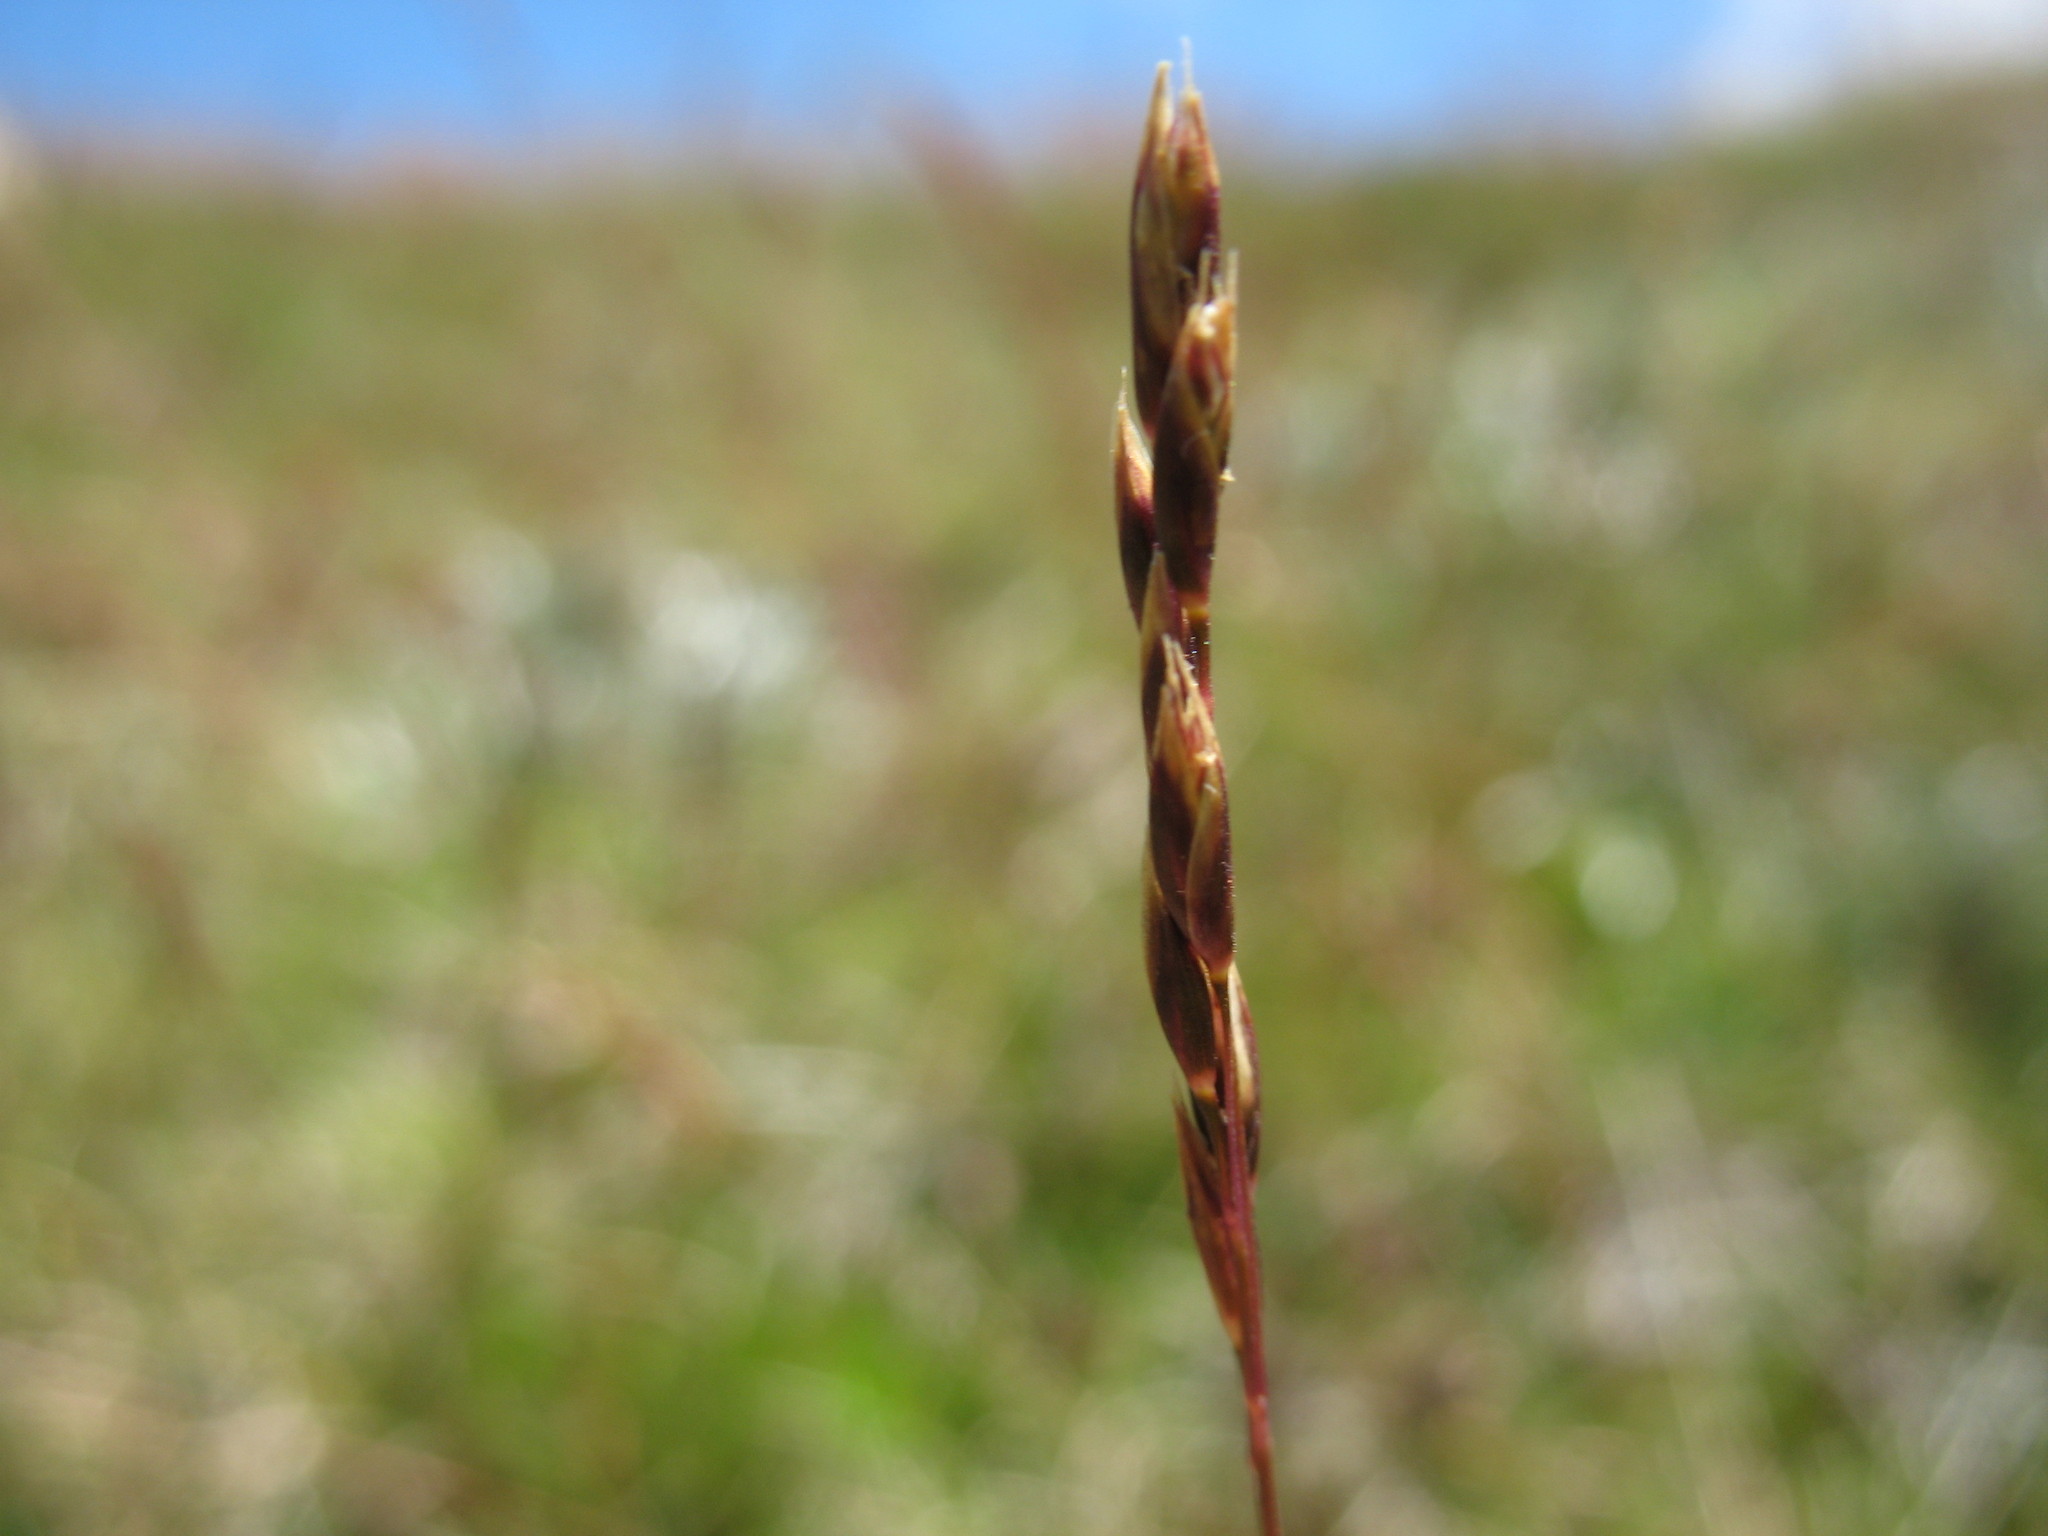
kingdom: Plantae
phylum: Tracheophyta
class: Liliopsida
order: Poales
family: Poaceae
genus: Rytidosperma
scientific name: Rytidosperma nivicola
